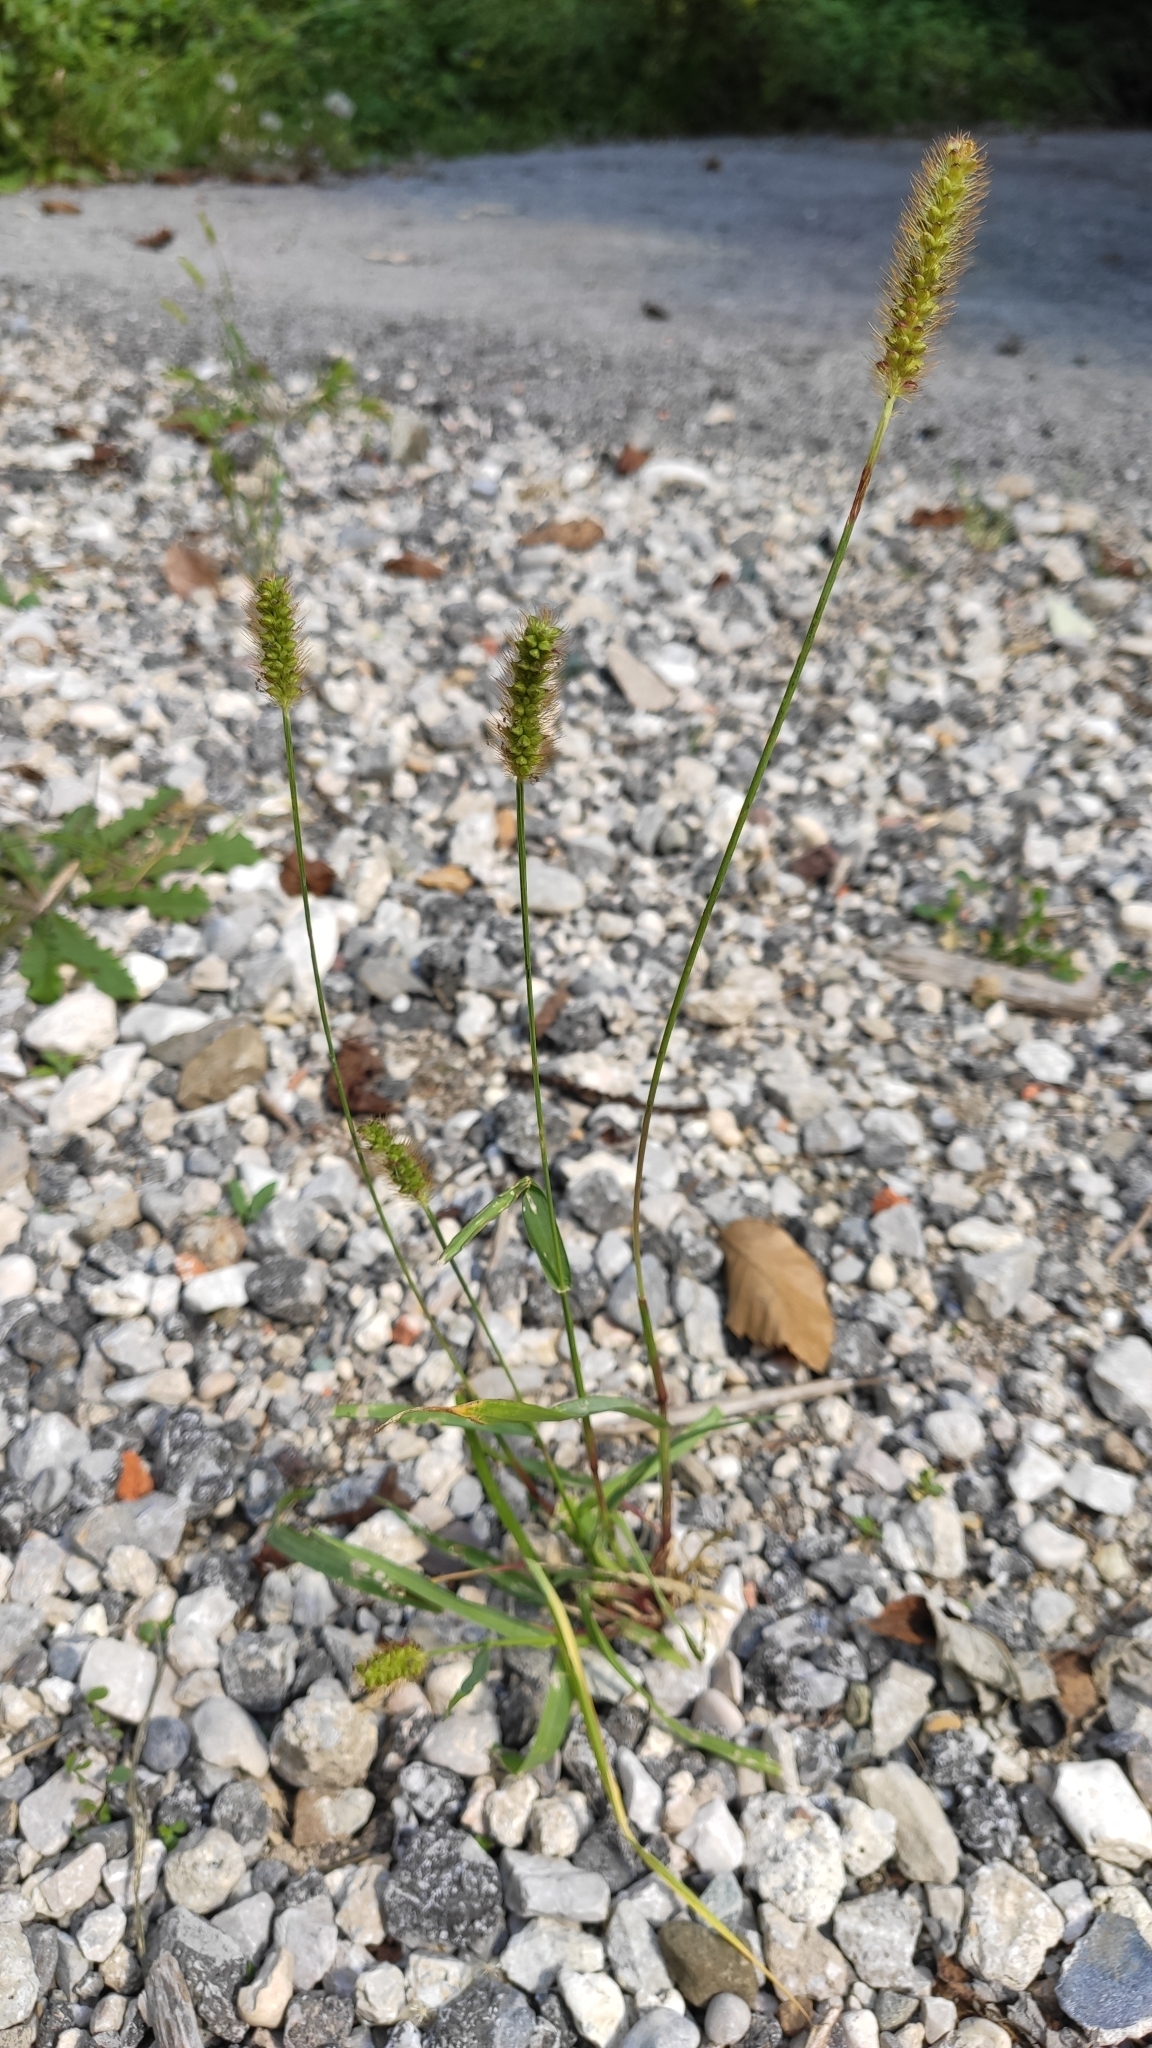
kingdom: Plantae
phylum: Tracheophyta
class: Liliopsida
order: Poales
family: Poaceae
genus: Setaria
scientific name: Setaria pumila
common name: Yellow bristle-grass
